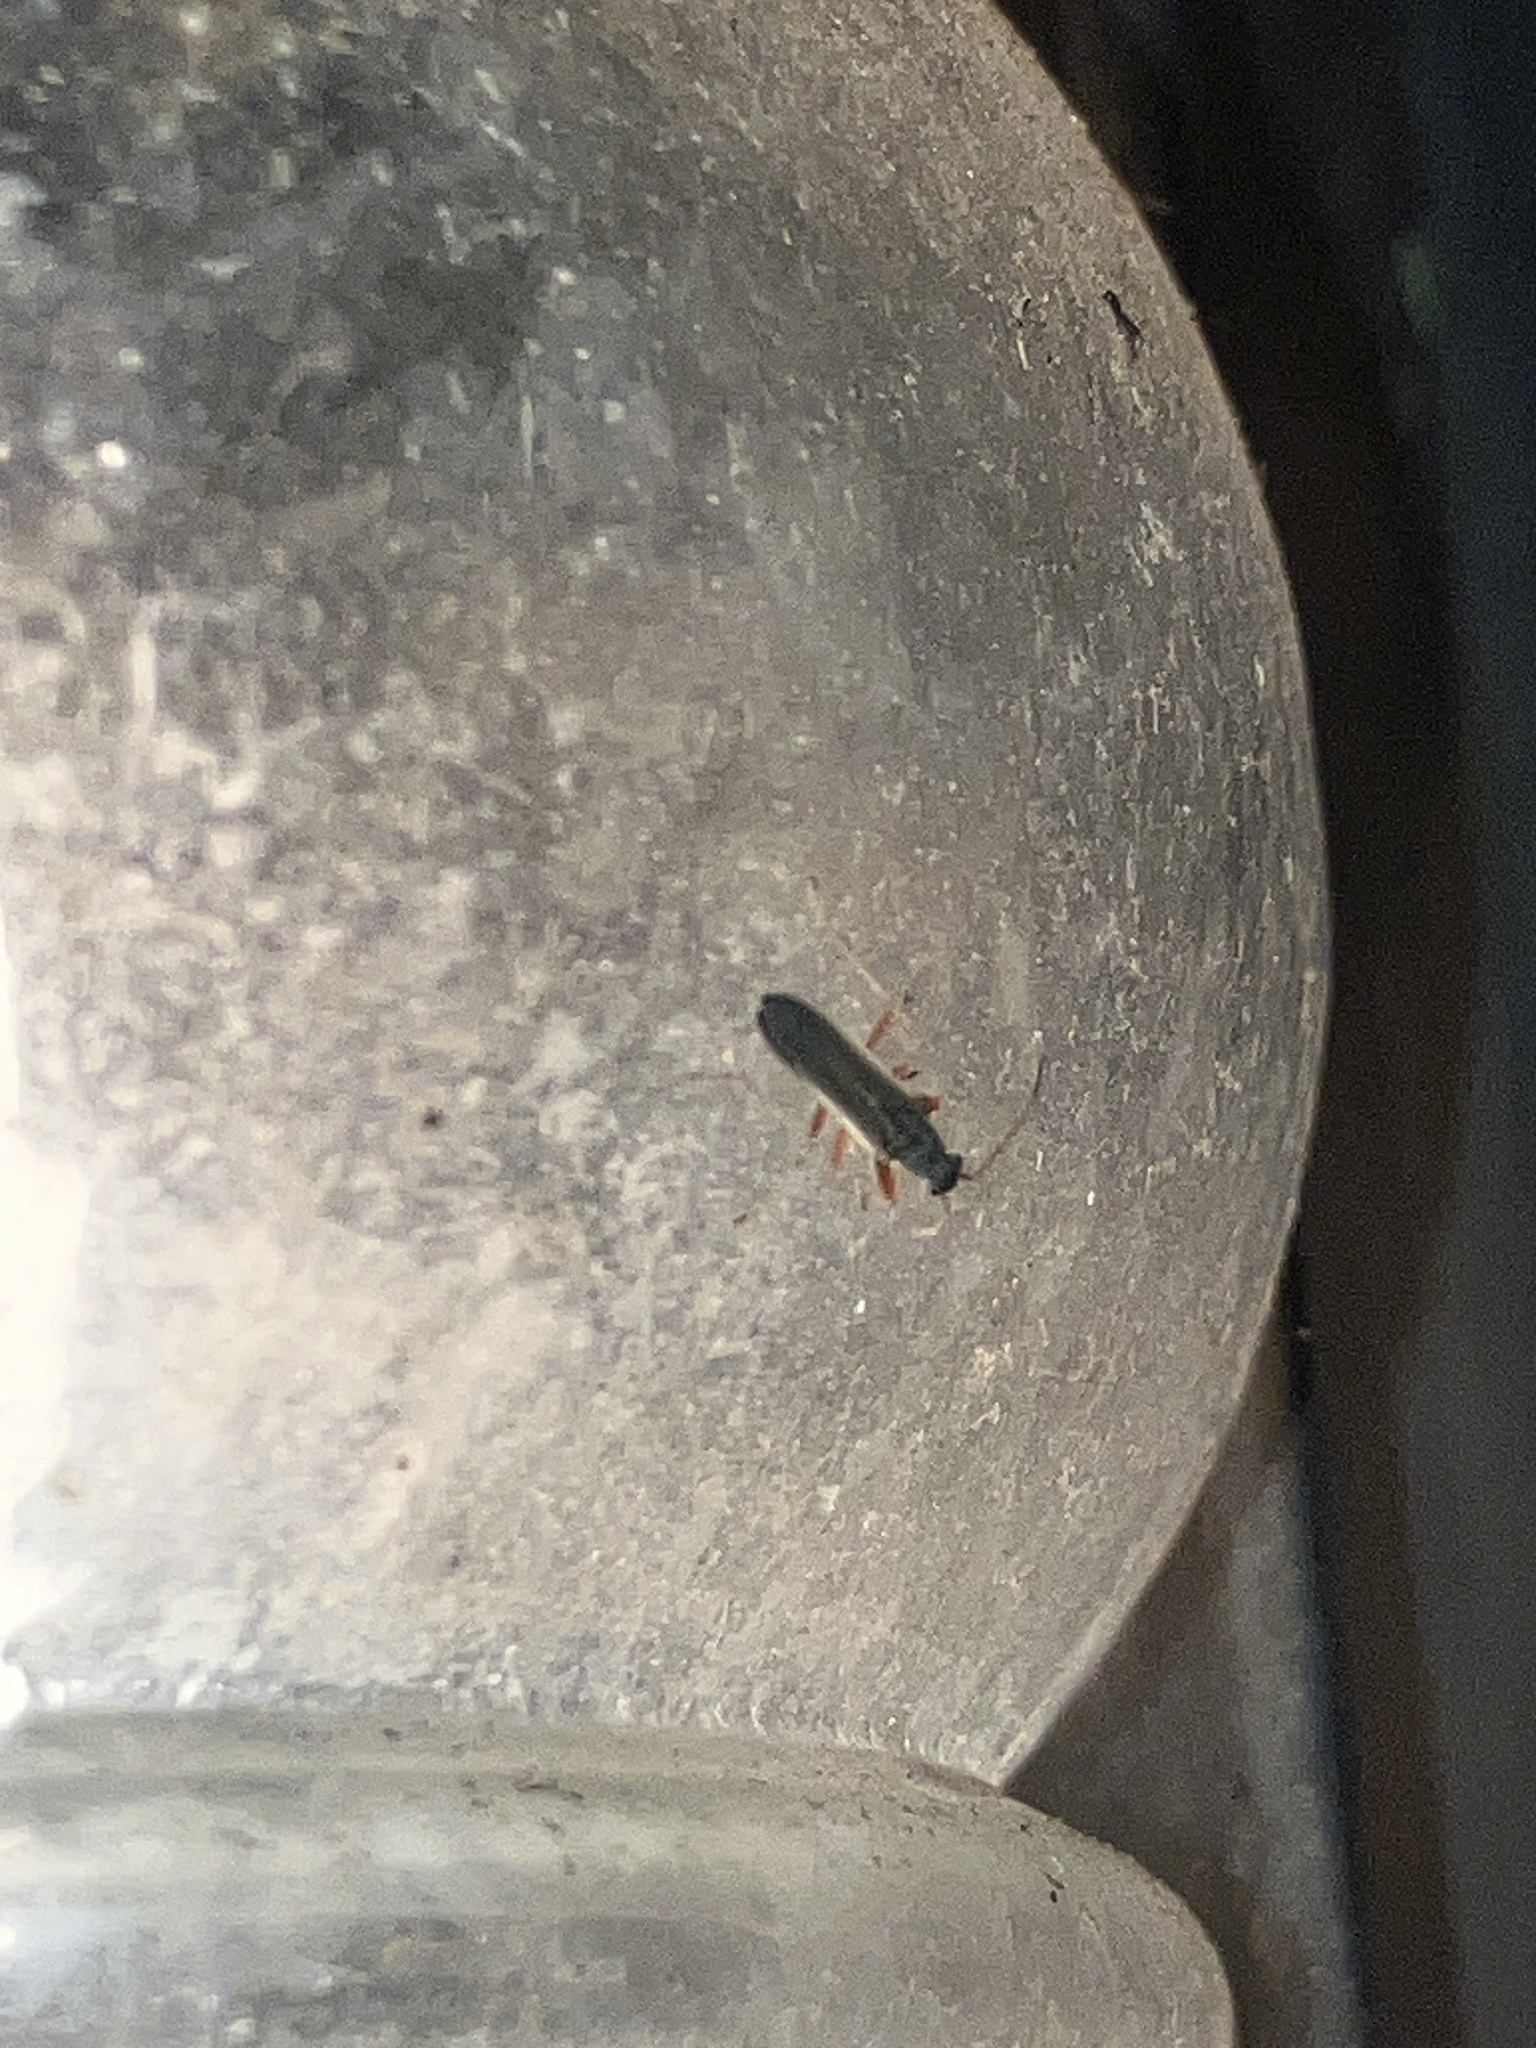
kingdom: Animalia
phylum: Arthropoda
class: Insecta
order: Hemiptera
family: Rhyparochromidae
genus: Paromius
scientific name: Paromius longulus
